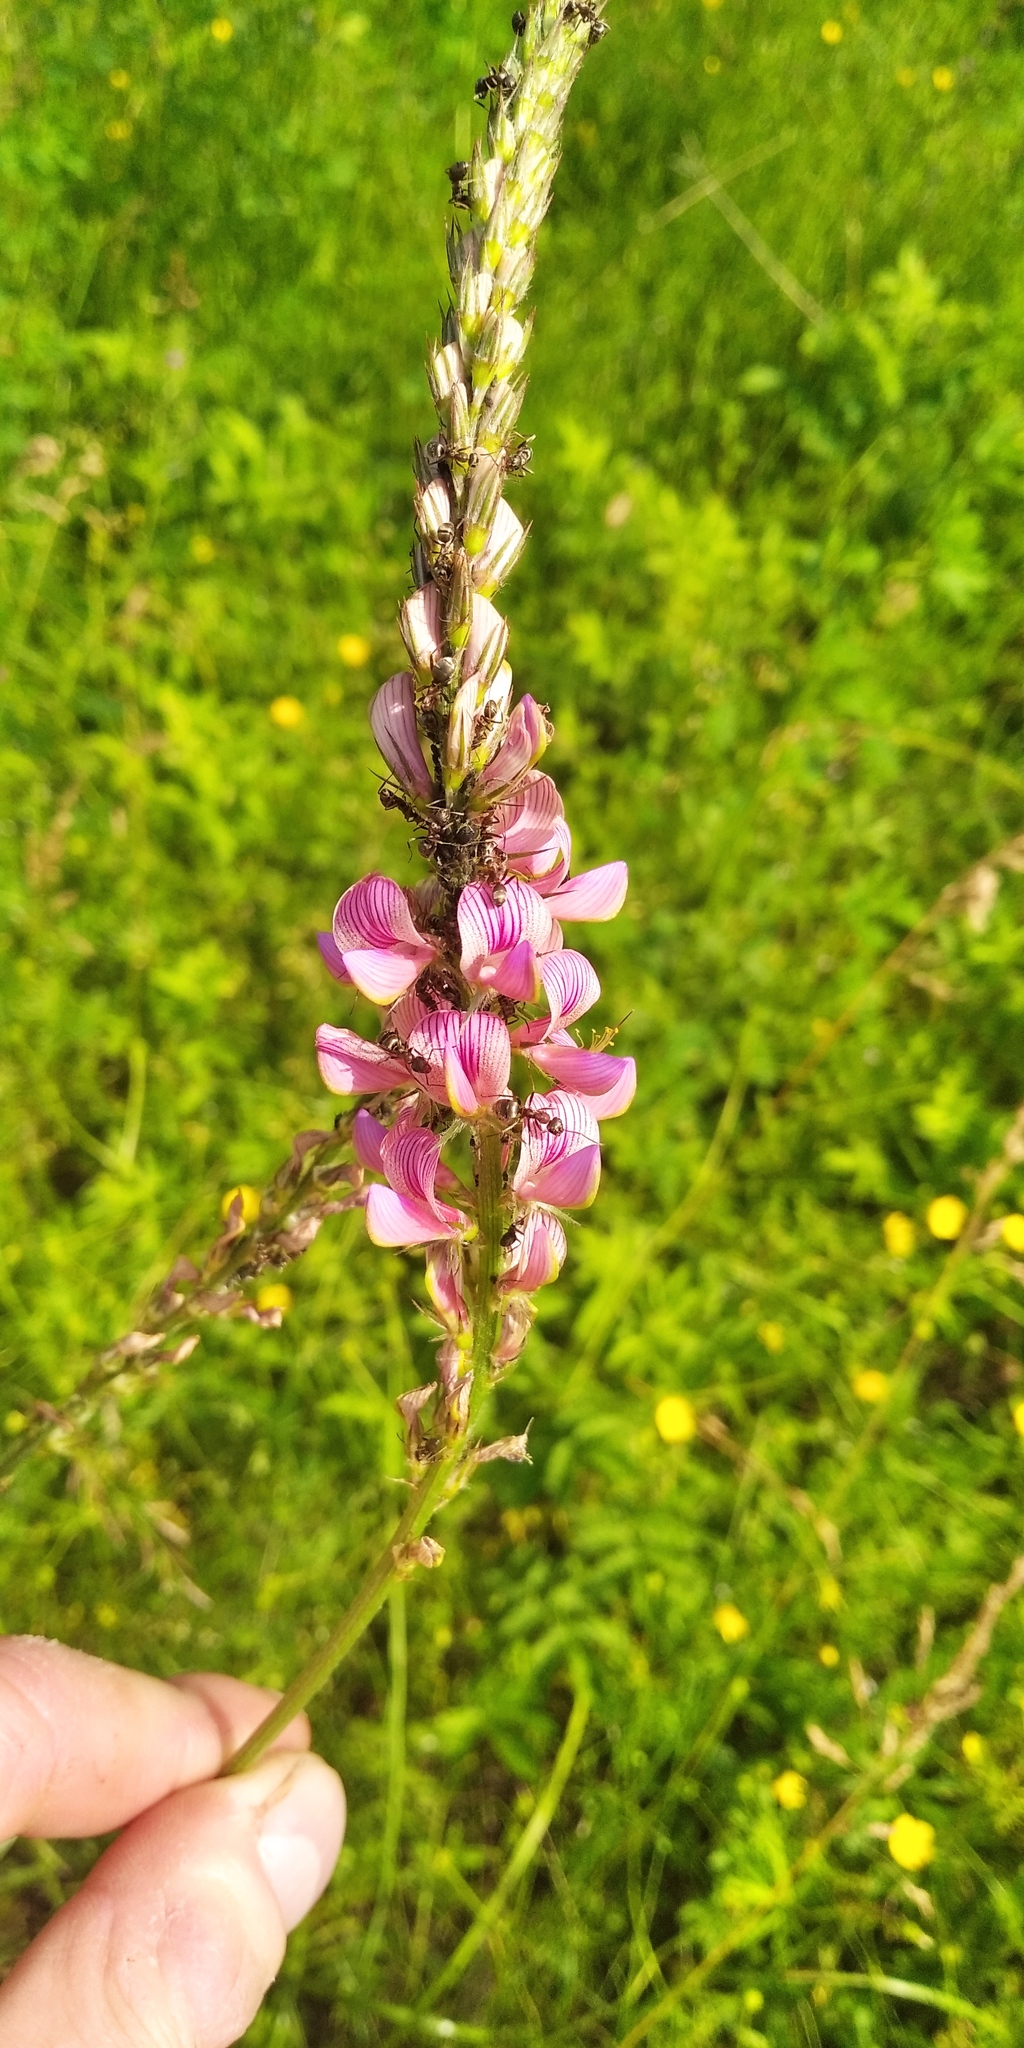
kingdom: Plantae
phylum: Tracheophyta
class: Magnoliopsida
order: Fabales
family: Fabaceae
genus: Onobrychis
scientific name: Onobrychis arenaria
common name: Sand esparcet
